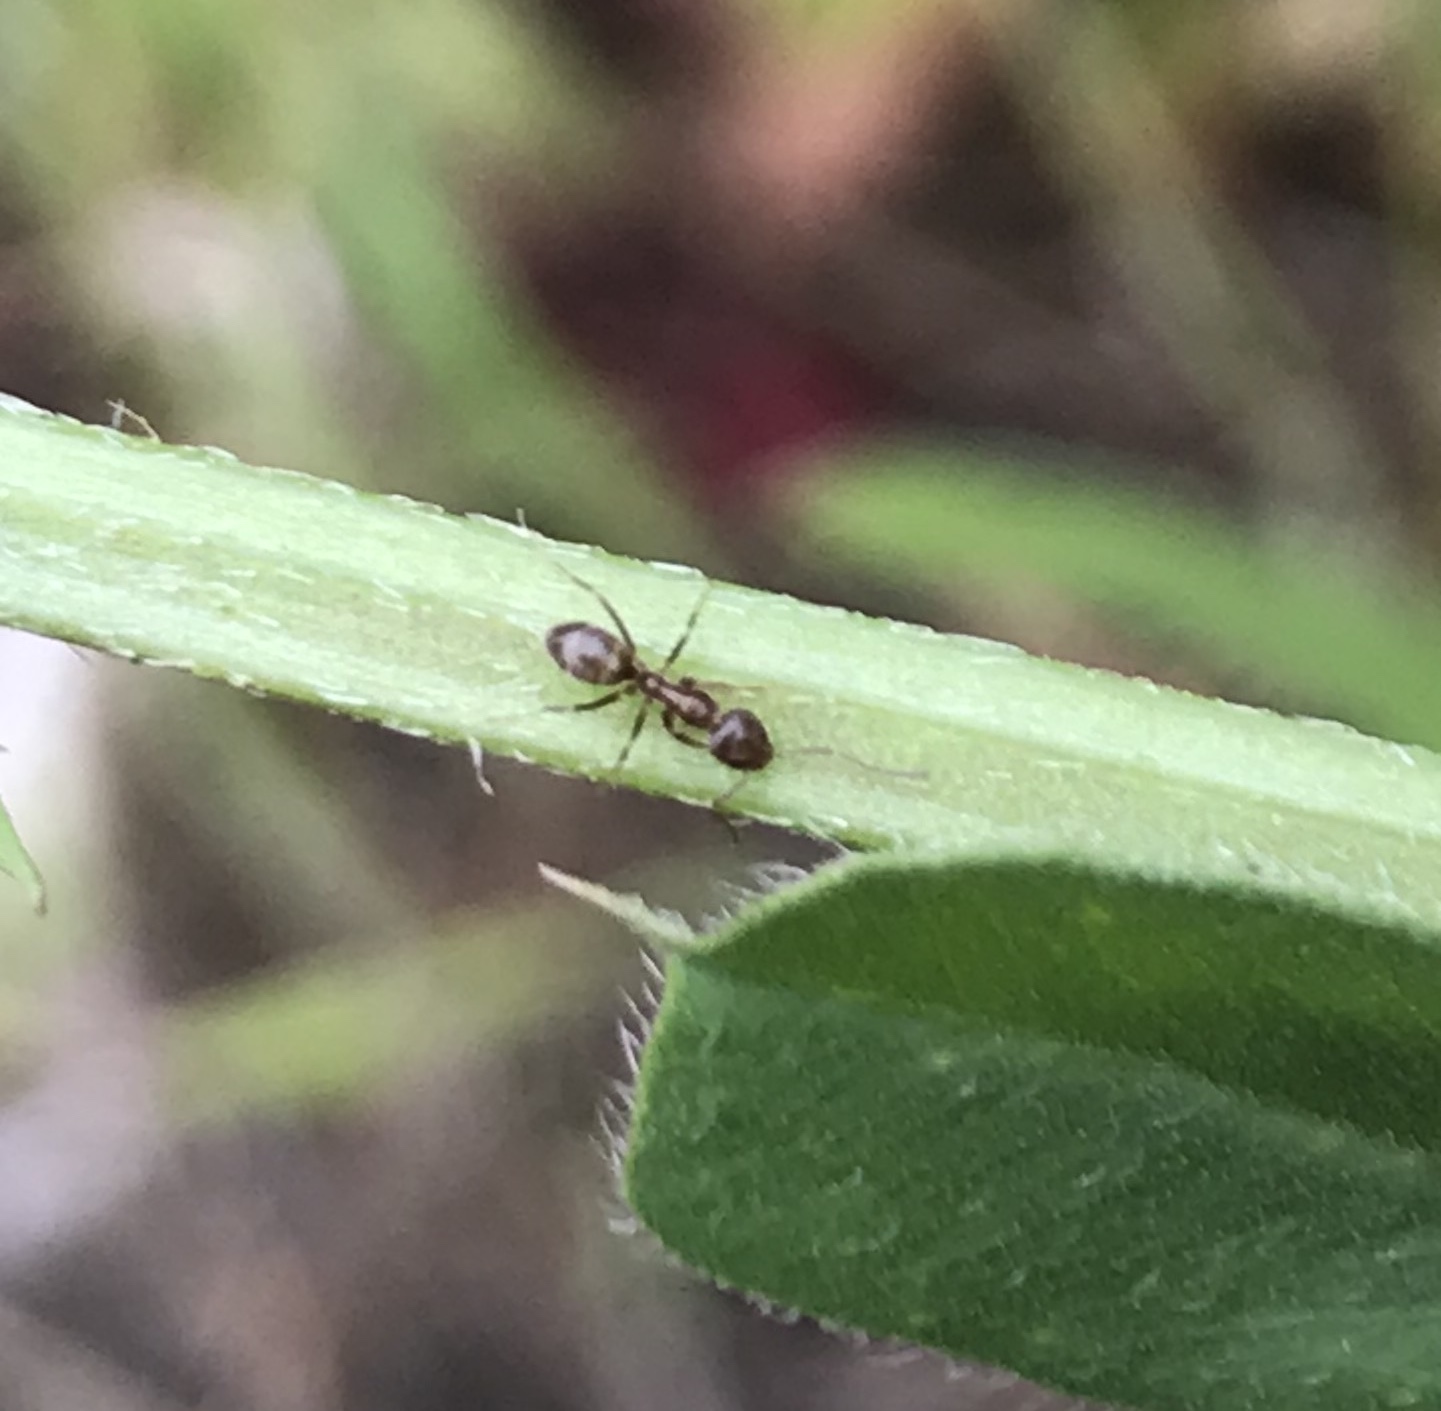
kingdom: Animalia
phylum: Arthropoda
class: Insecta
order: Hymenoptera
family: Formicidae
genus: Linepithema
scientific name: Linepithema humile
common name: Argentine ant
